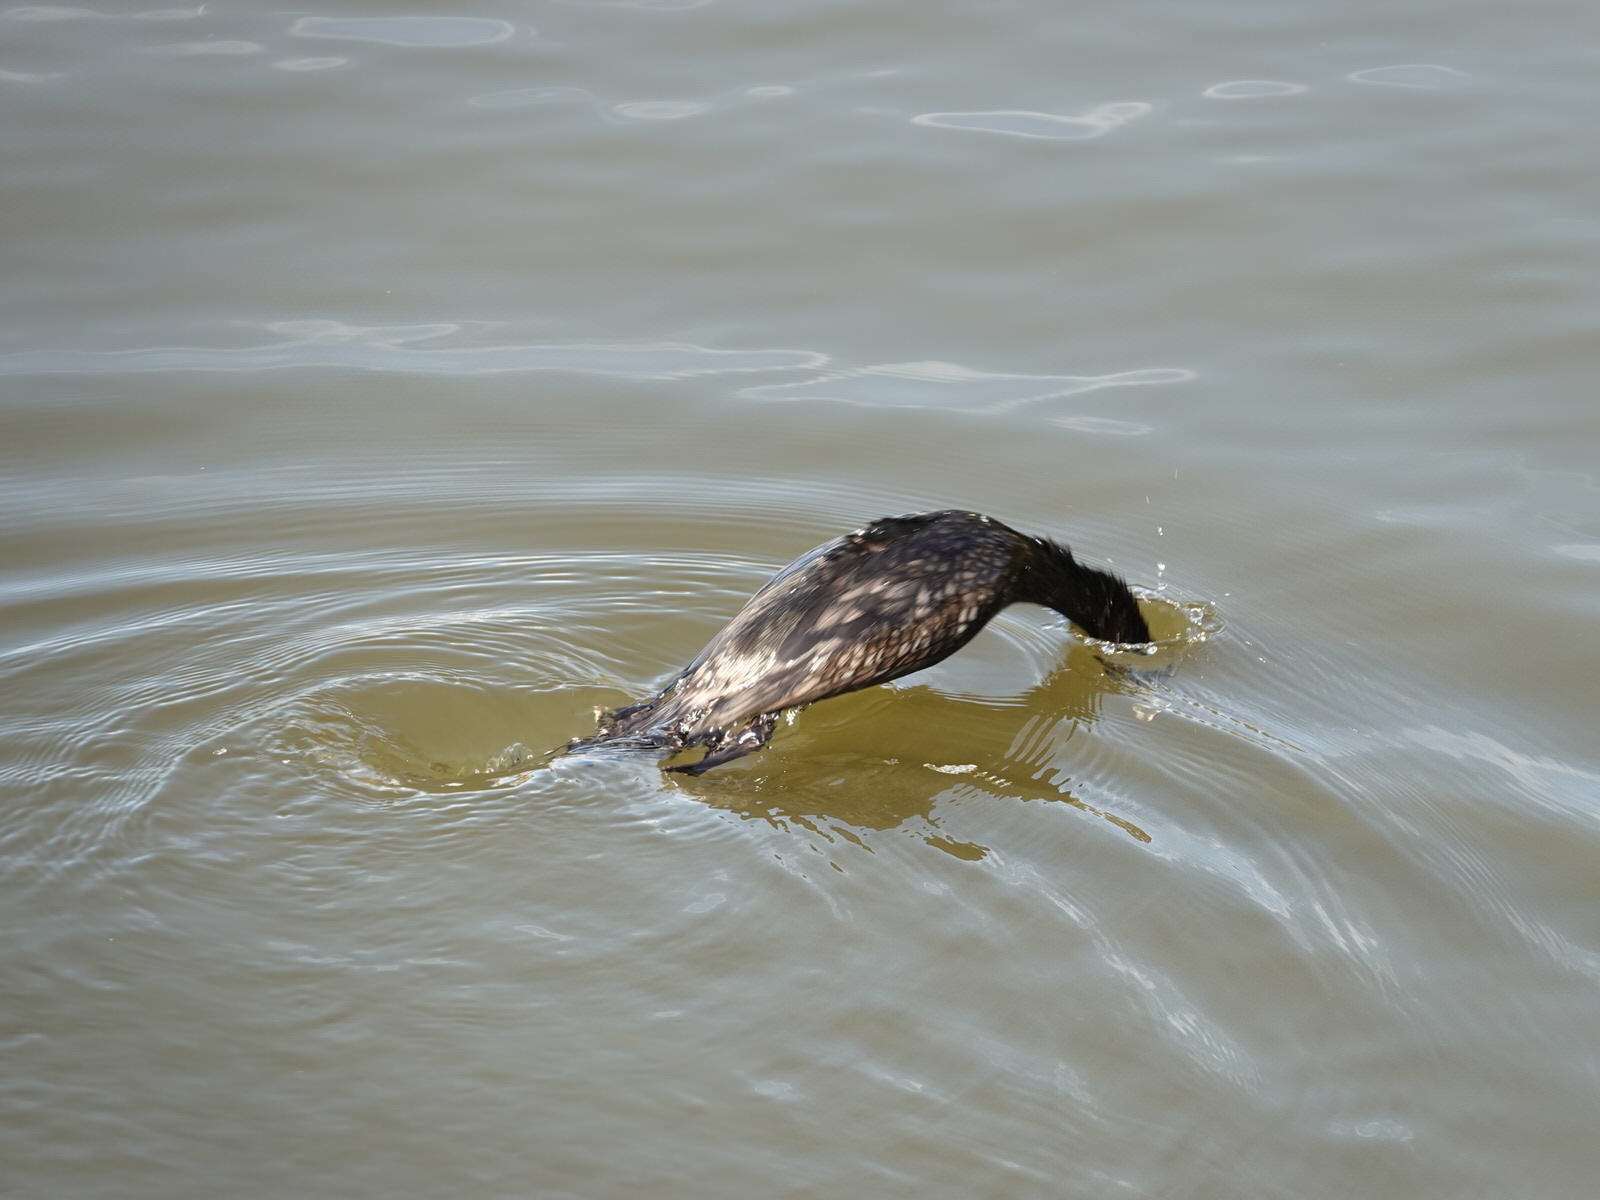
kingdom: Animalia
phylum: Chordata
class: Aves
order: Suliformes
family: Phalacrocoracidae
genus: Phalacrocorax
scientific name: Phalacrocorax sulcirostris
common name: Little black cormorant
